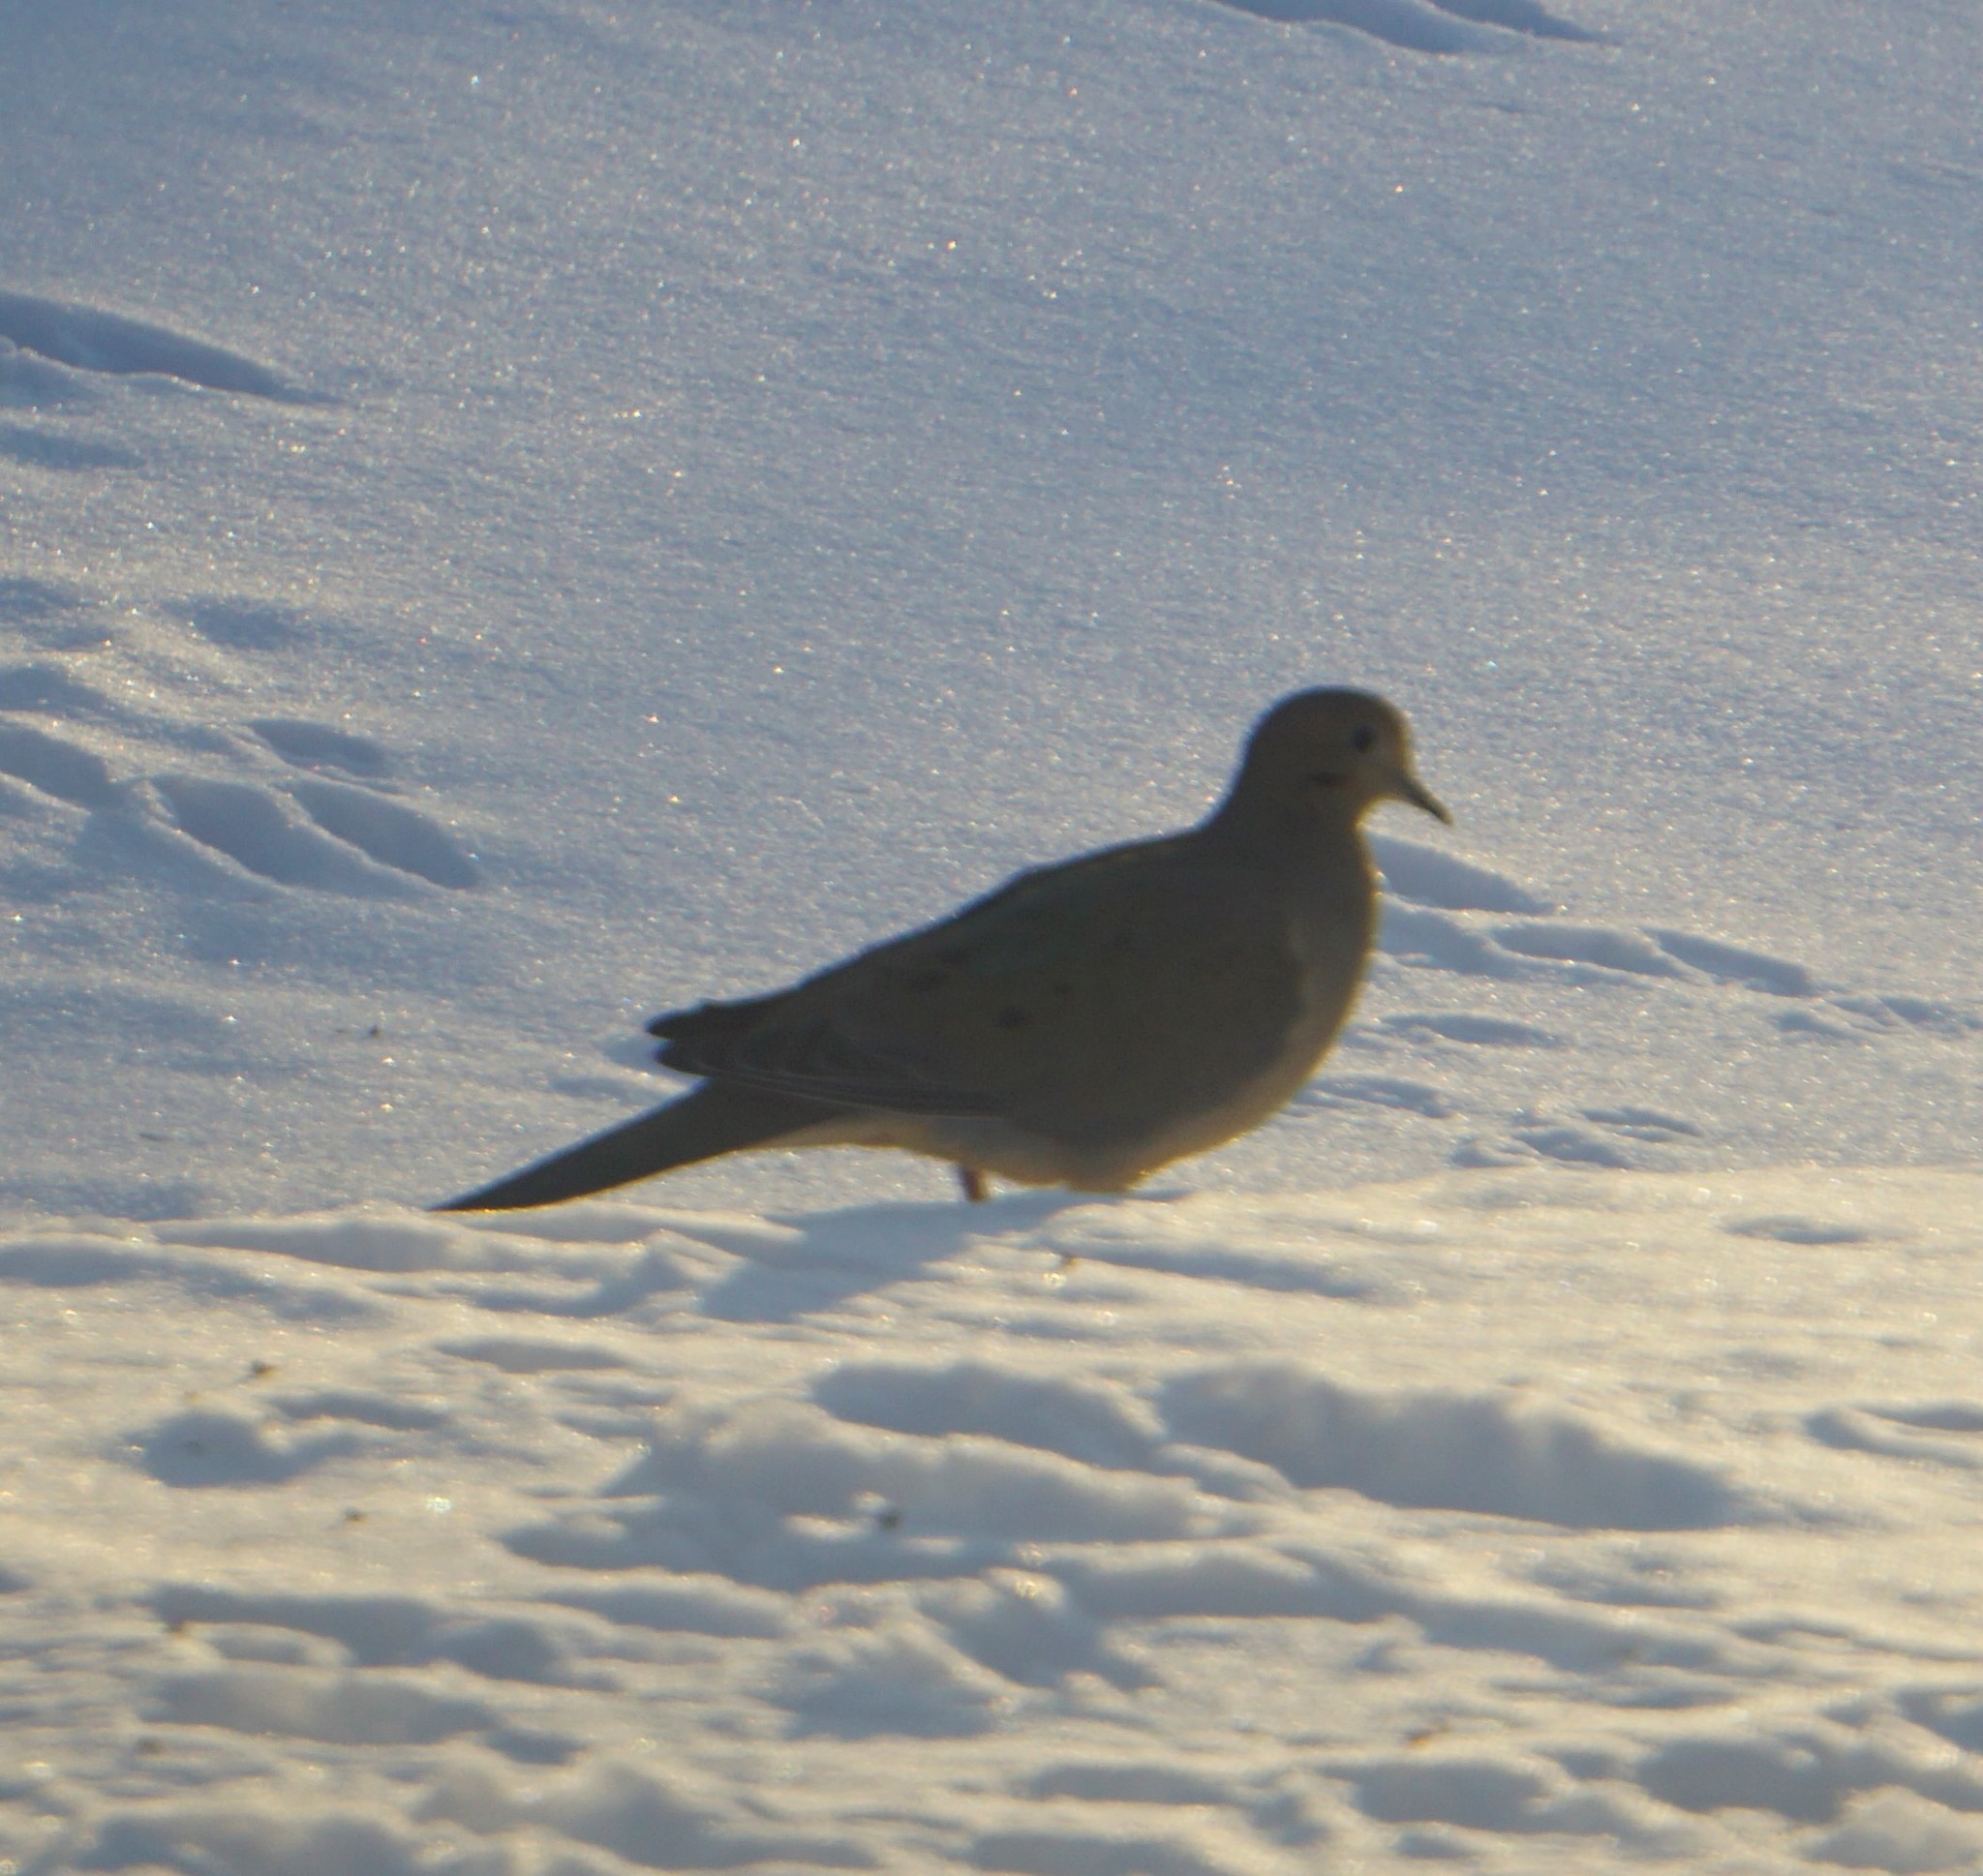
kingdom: Animalia
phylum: Chordata
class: Aves
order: Columbiformes
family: Columbidae
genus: Zenaida
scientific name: Zenaida macroura
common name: Mourning dove
